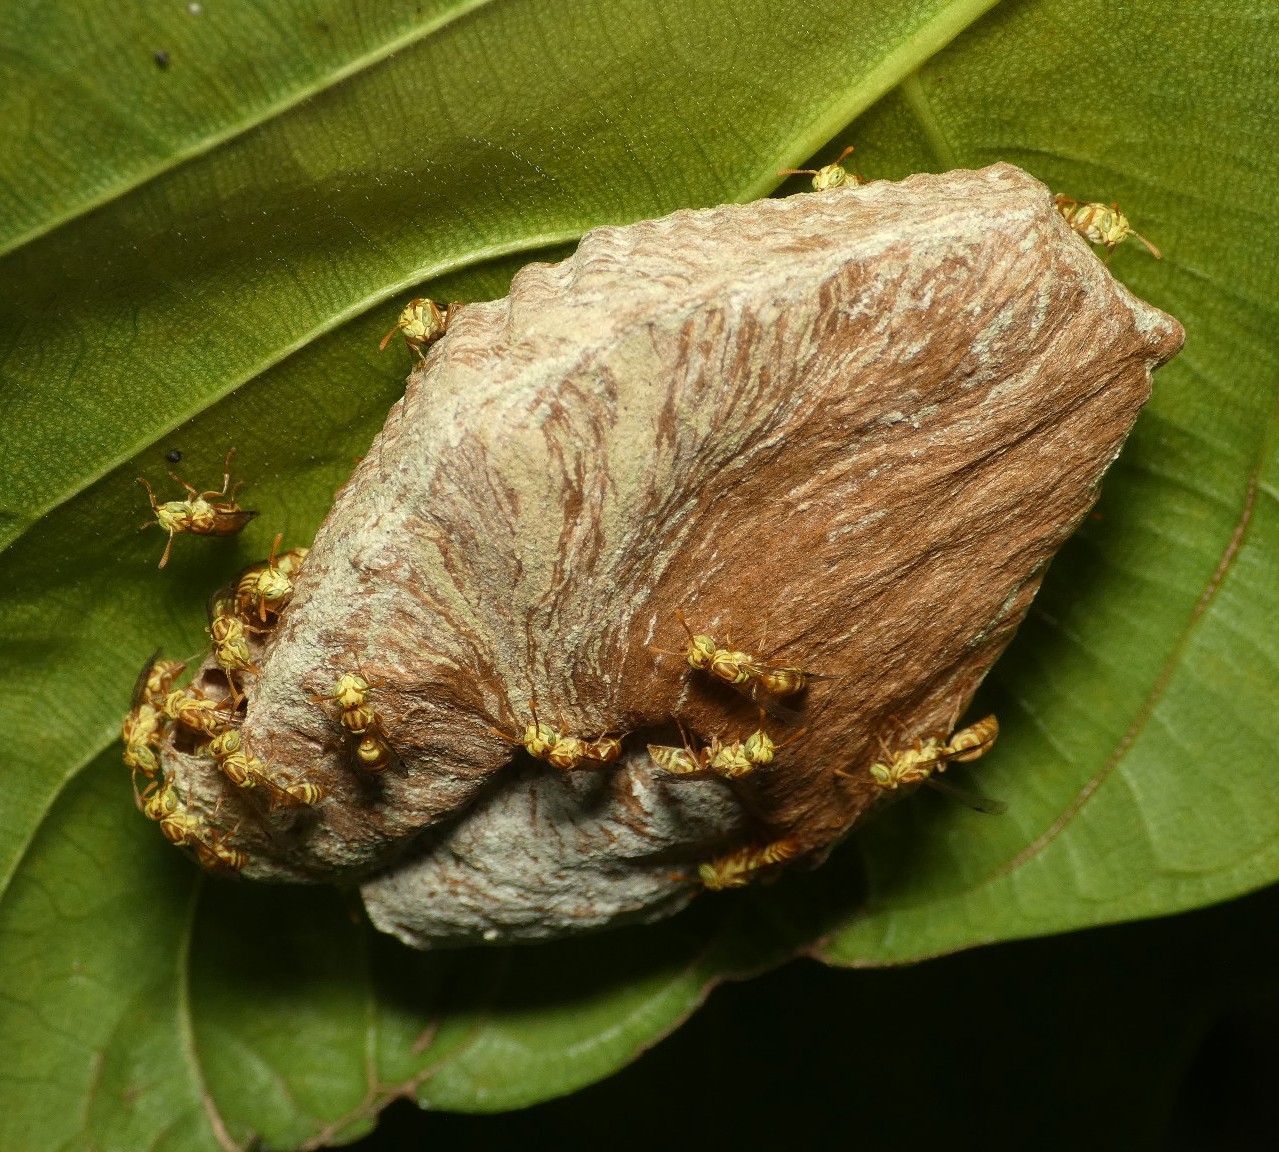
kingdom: Animalia
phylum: Arthropoda
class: Insecta
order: Hymenoptera
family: Vespidae
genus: Protopolybia
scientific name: Protopolybia potiguara
